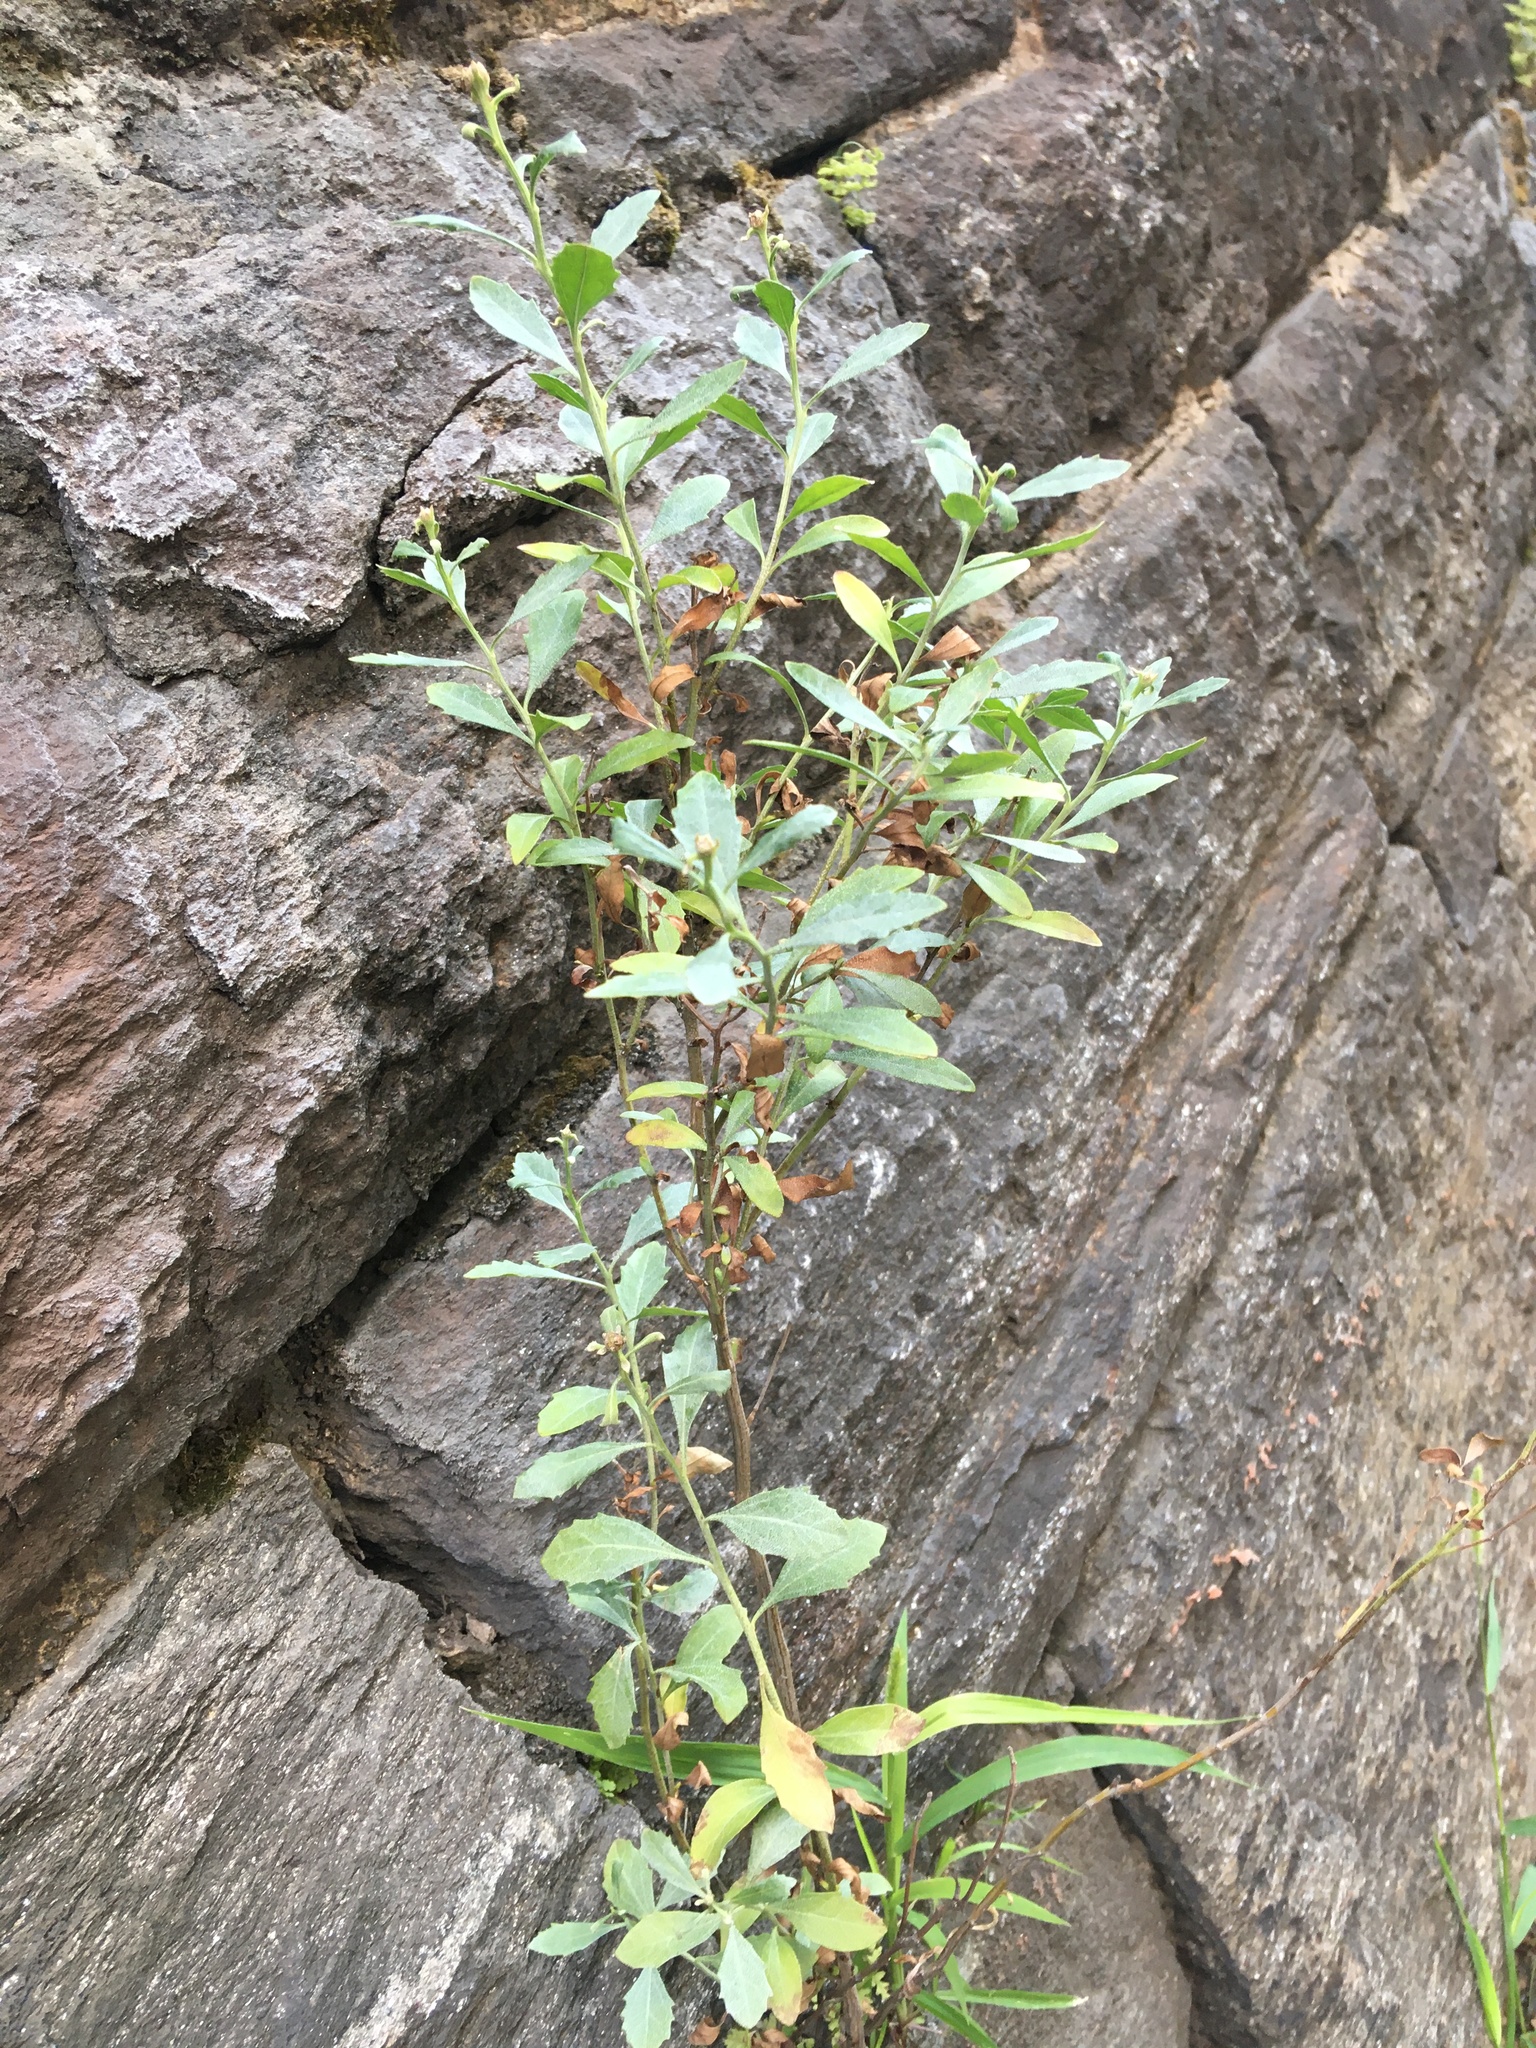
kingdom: Plantae
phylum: Tracheophyta
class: Magnoliopsida
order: Asterales
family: Asteraceae
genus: Baccharis
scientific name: Baccharis halimifolia
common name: Eastern baccharis
